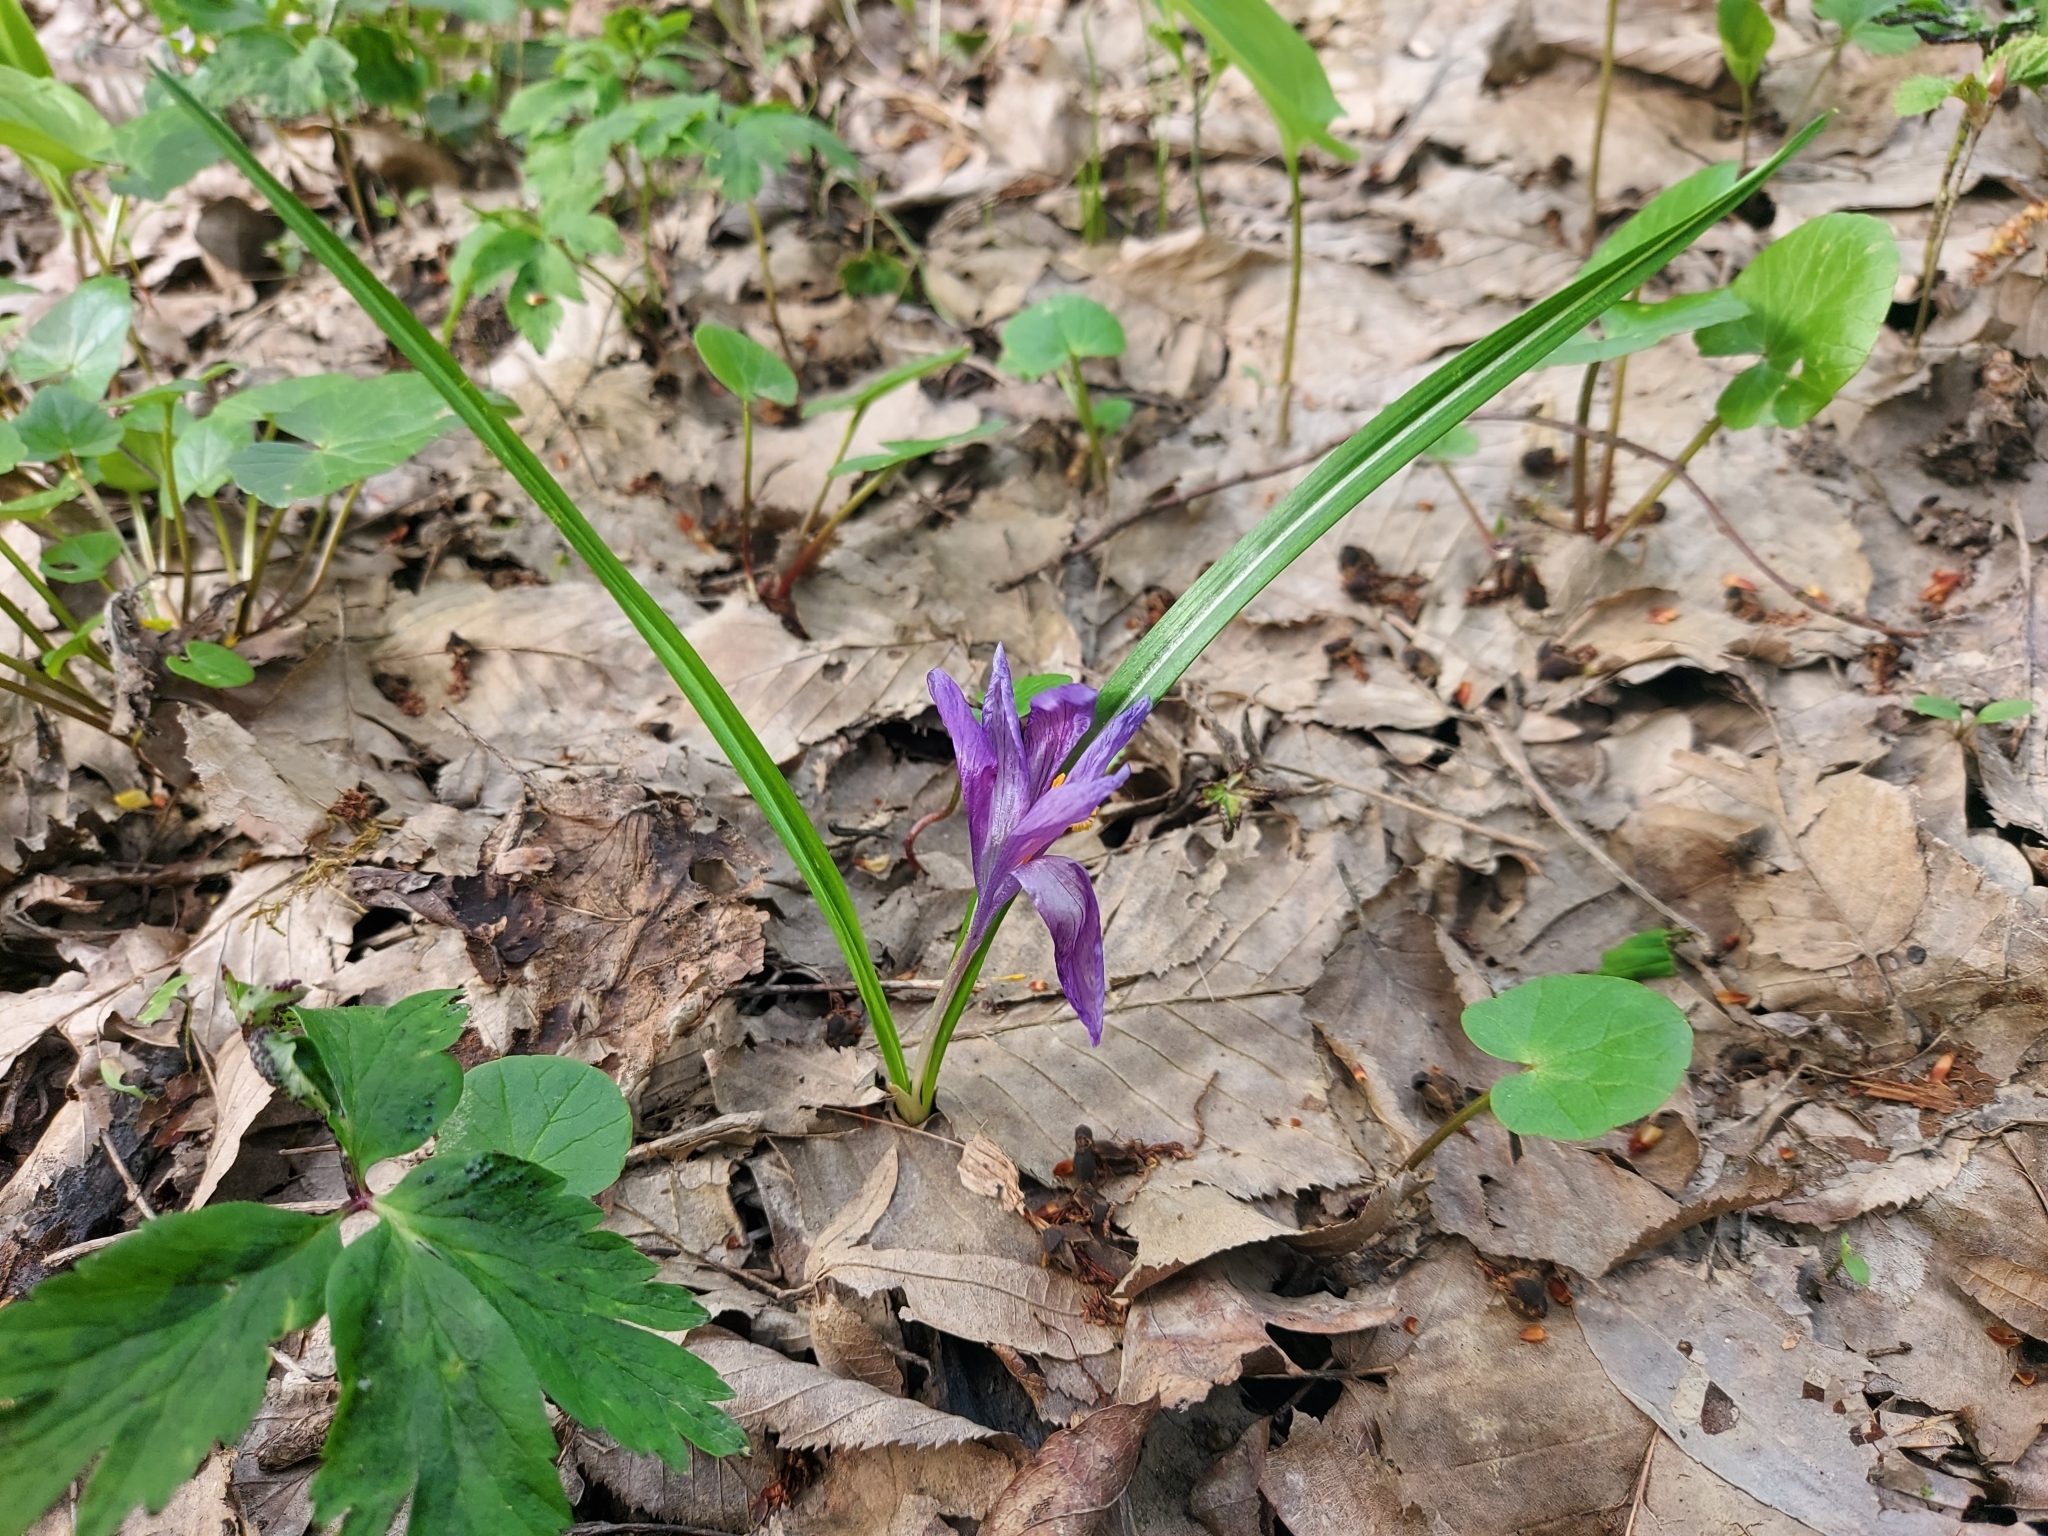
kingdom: Plantae
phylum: Tracheophyta
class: Liliopsida
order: Asparagales
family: Iridaceae
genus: Crocus
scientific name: Crocus heuffelianus
